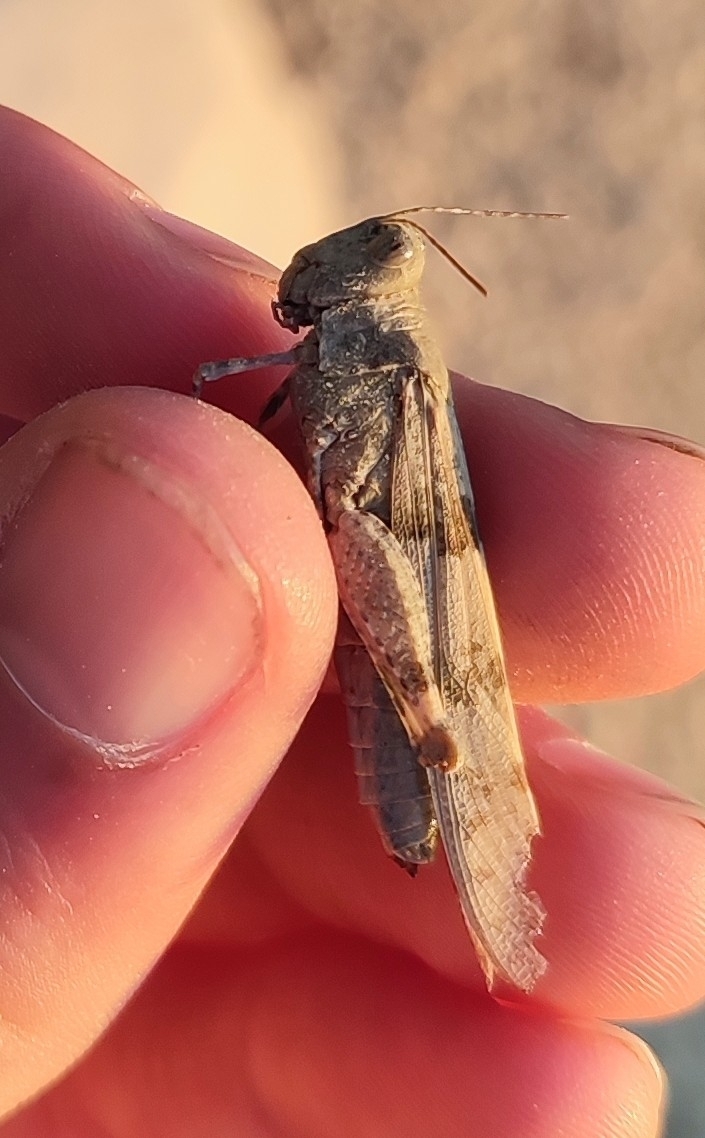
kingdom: Animalia
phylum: Arthropoda
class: Insecta
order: Orthoptera
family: Acrididae
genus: Sphingonotus
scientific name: Sphingonotus caerulans
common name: Blue-winged locust
